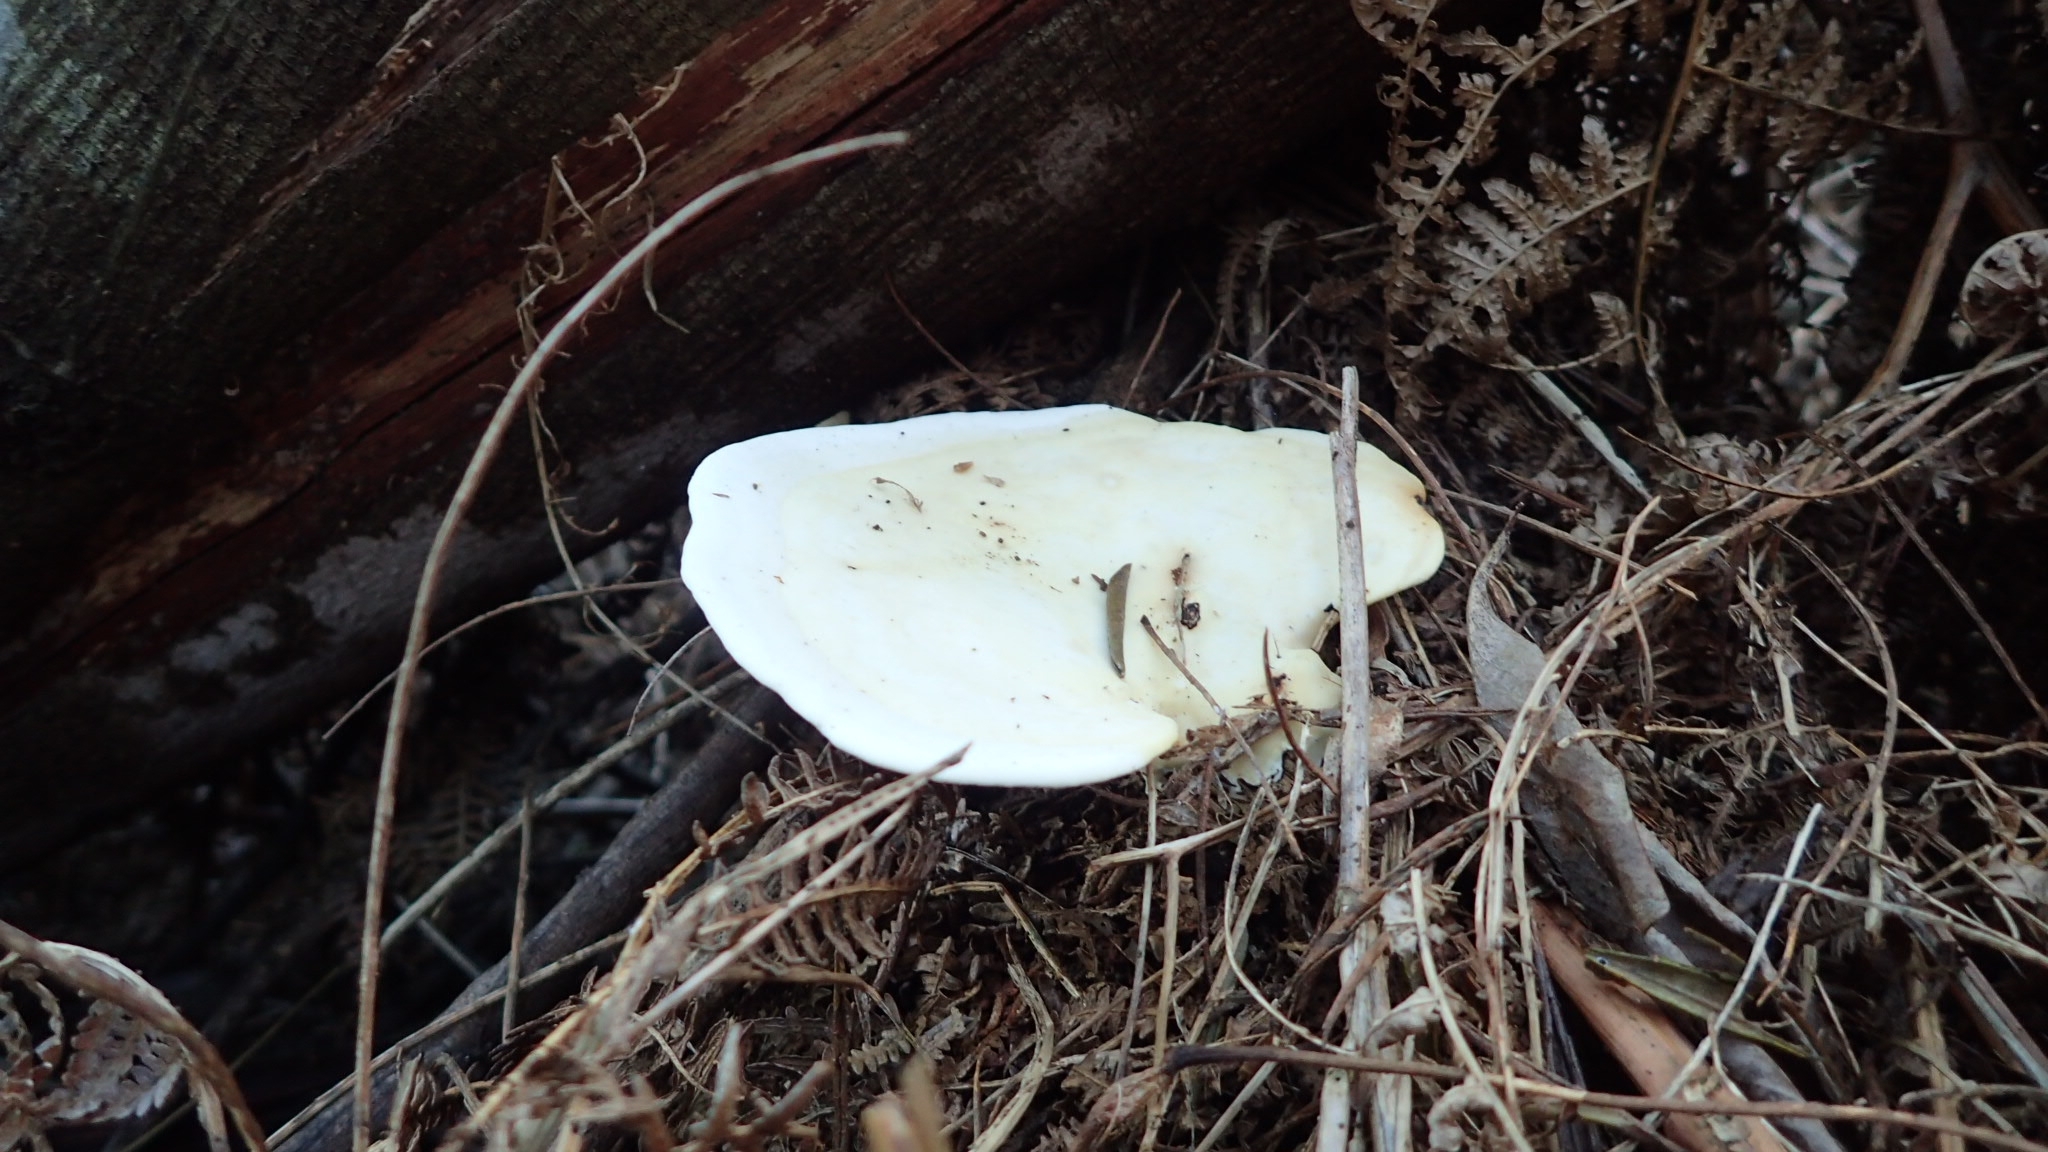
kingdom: Fungi
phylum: Basidiomycota
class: Agaricomycetes
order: Polyporales
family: Polyporaceae
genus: Trametes
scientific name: Trametes elegans
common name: White maze polypore
